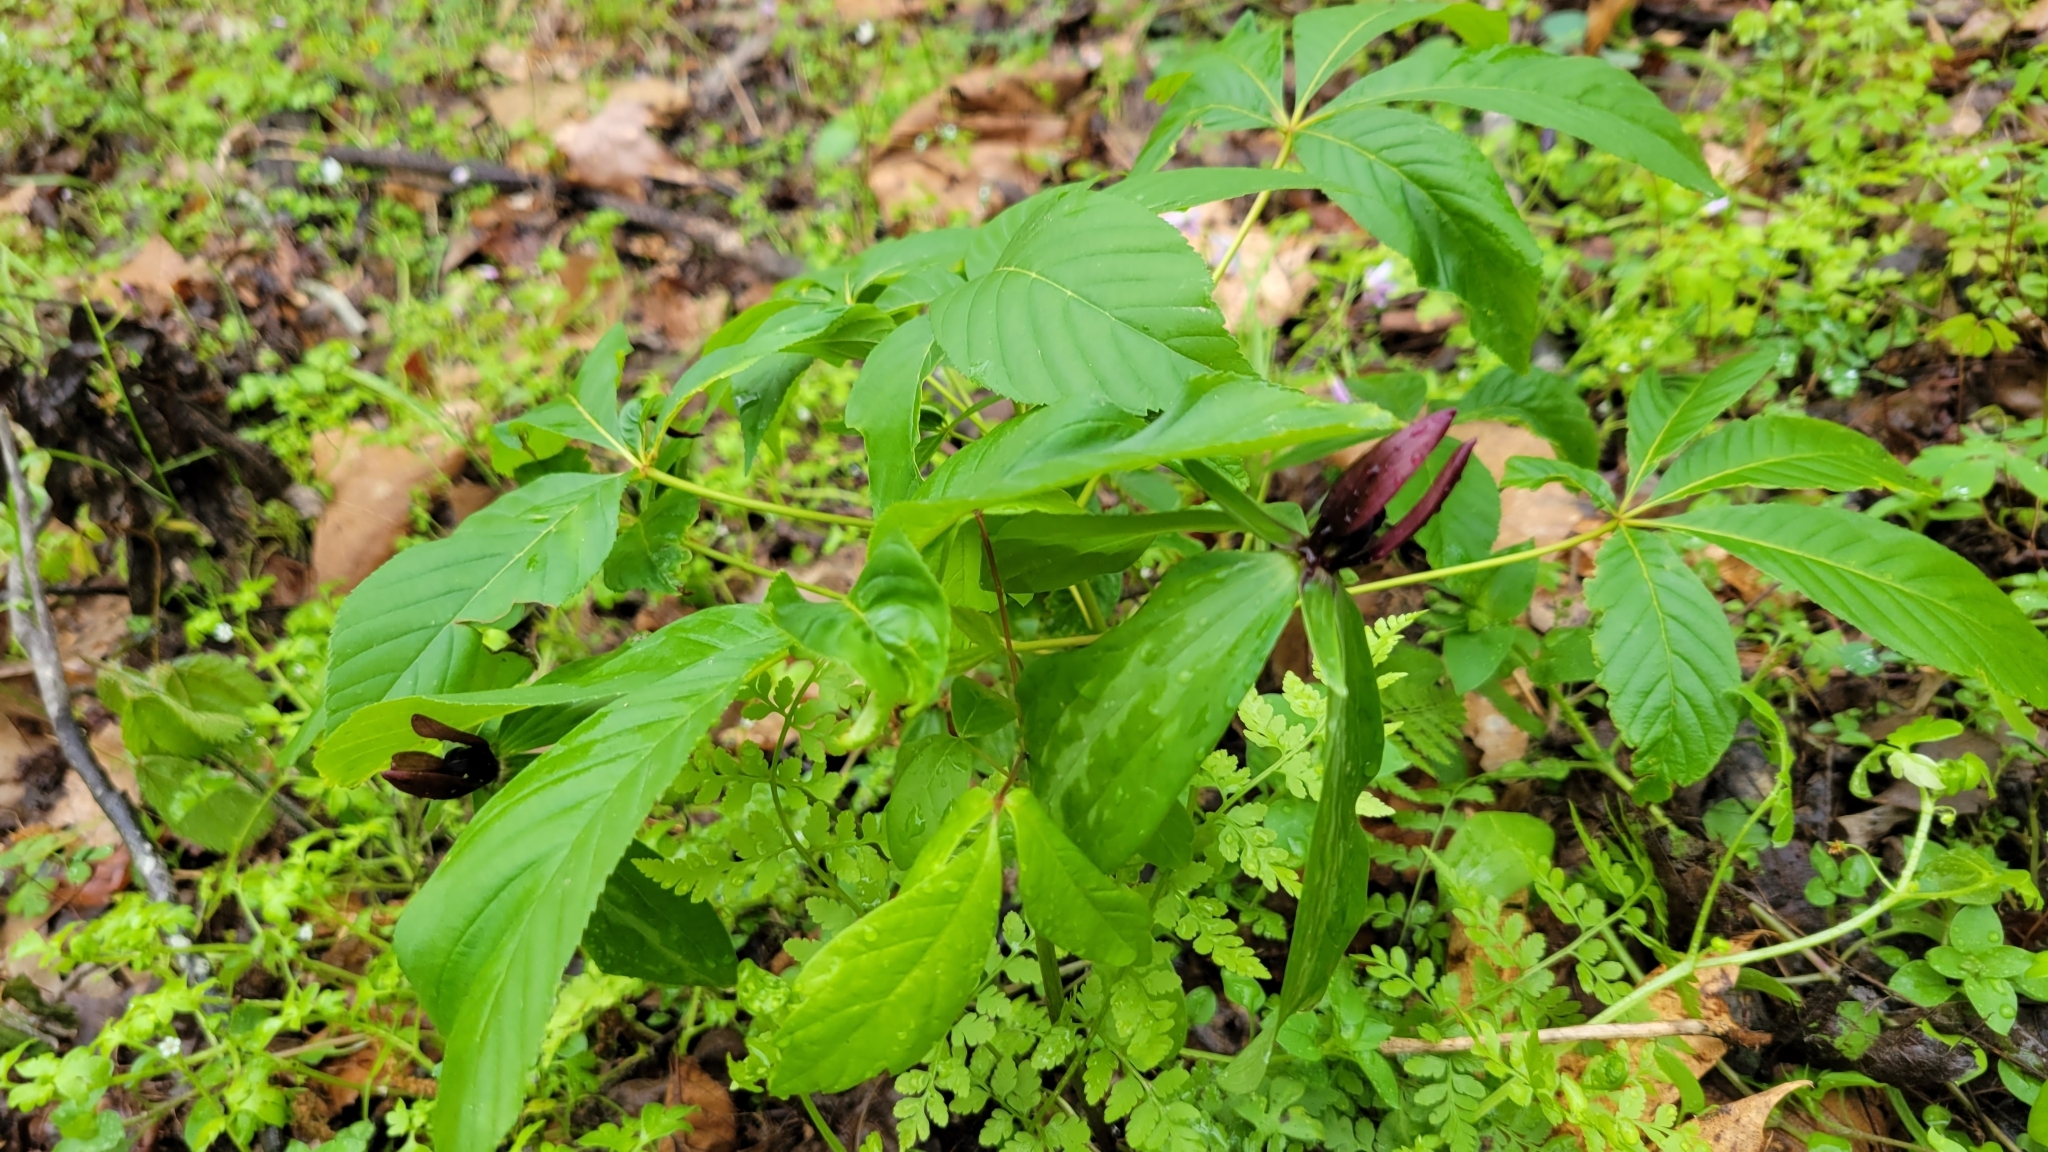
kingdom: Plantae
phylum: Tracheophyta
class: Liliopsida
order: Liliales
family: Melanthiaceae
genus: Trillium
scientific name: Trillium lancifolium
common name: Lance-leaved trillium
